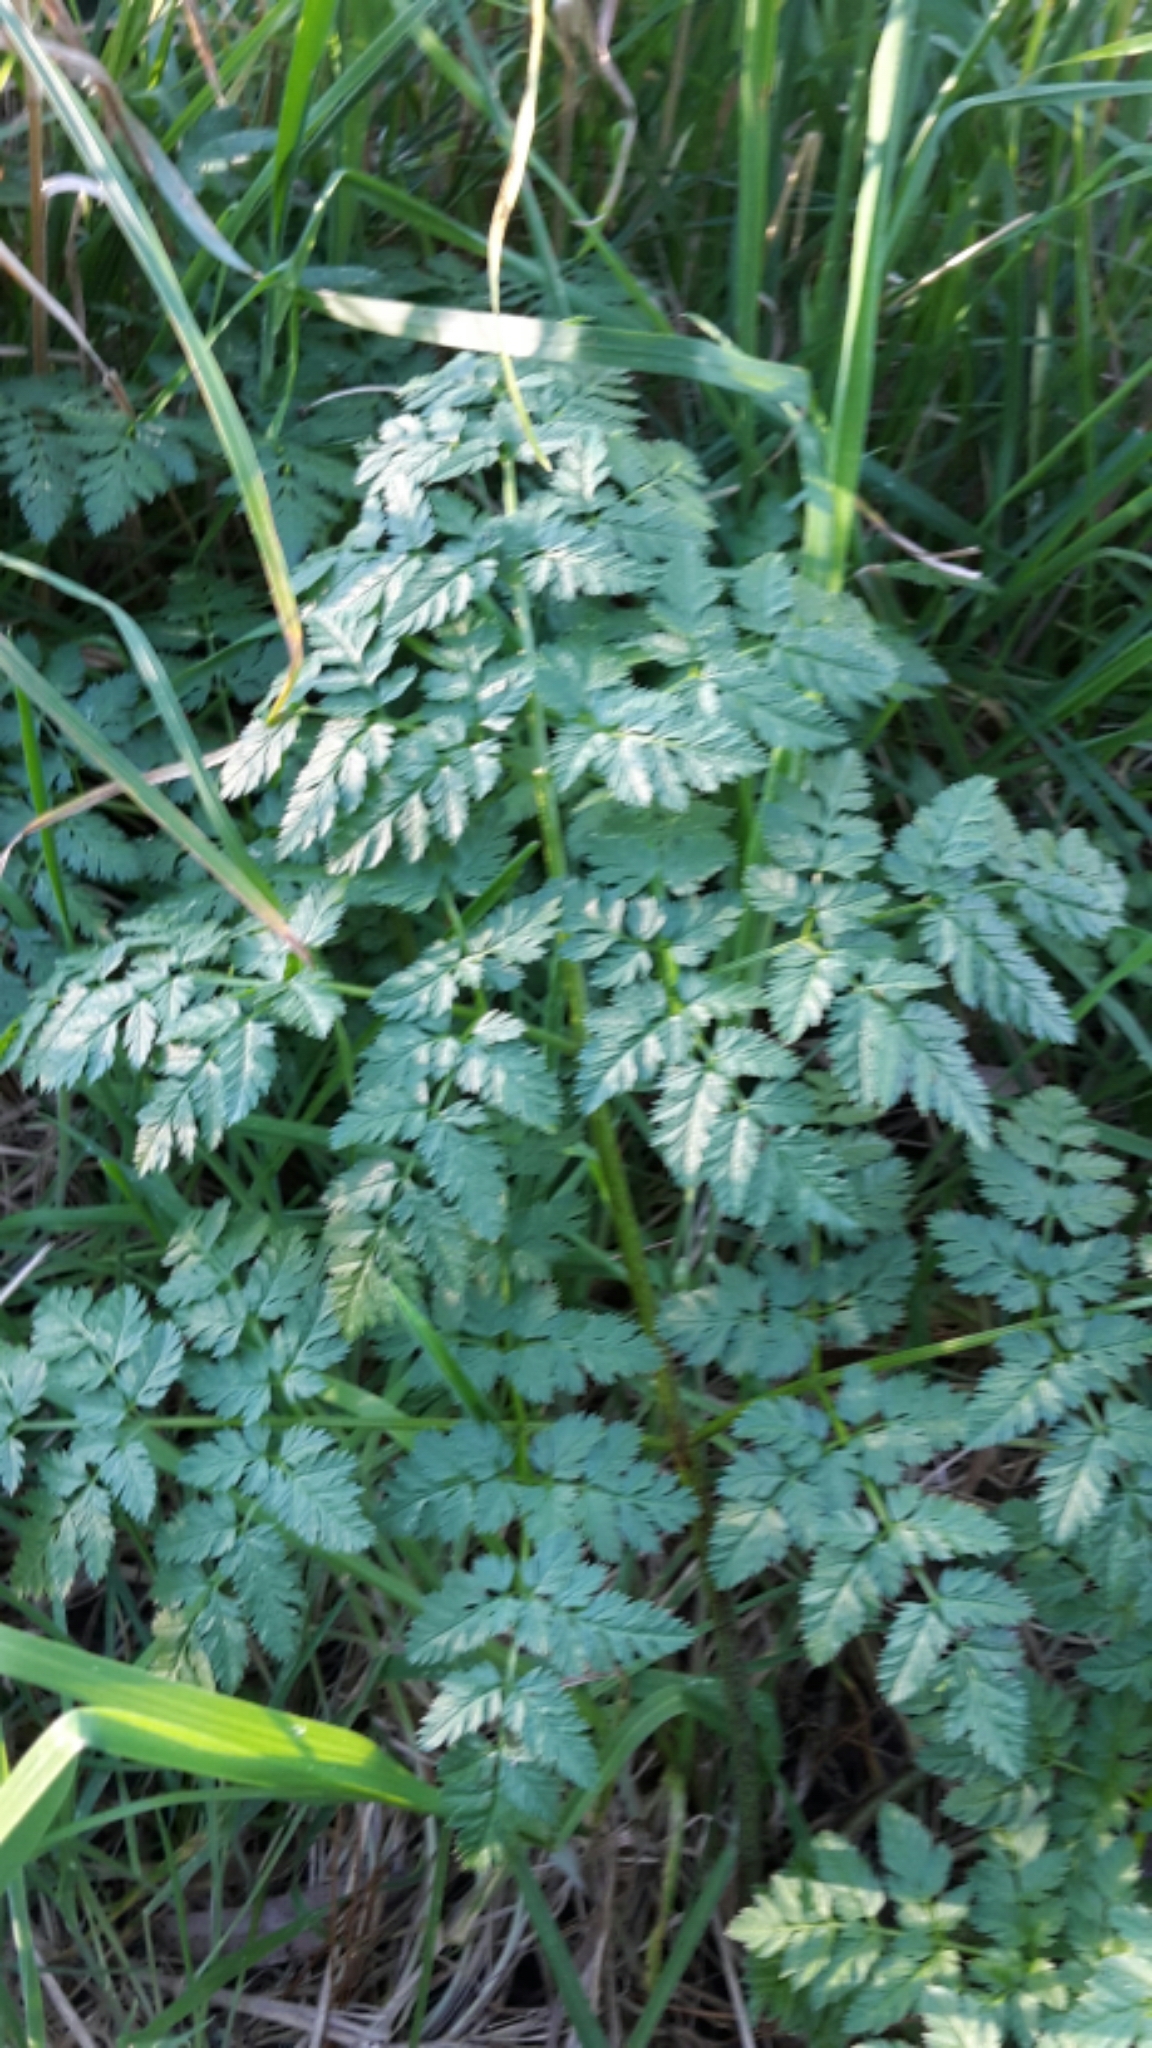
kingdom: Plantae
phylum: Tracheophyta
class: Magnoliopsida
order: Apiales
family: Apiaceae
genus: Conium
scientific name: Conium maculatum
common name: Hemlock
